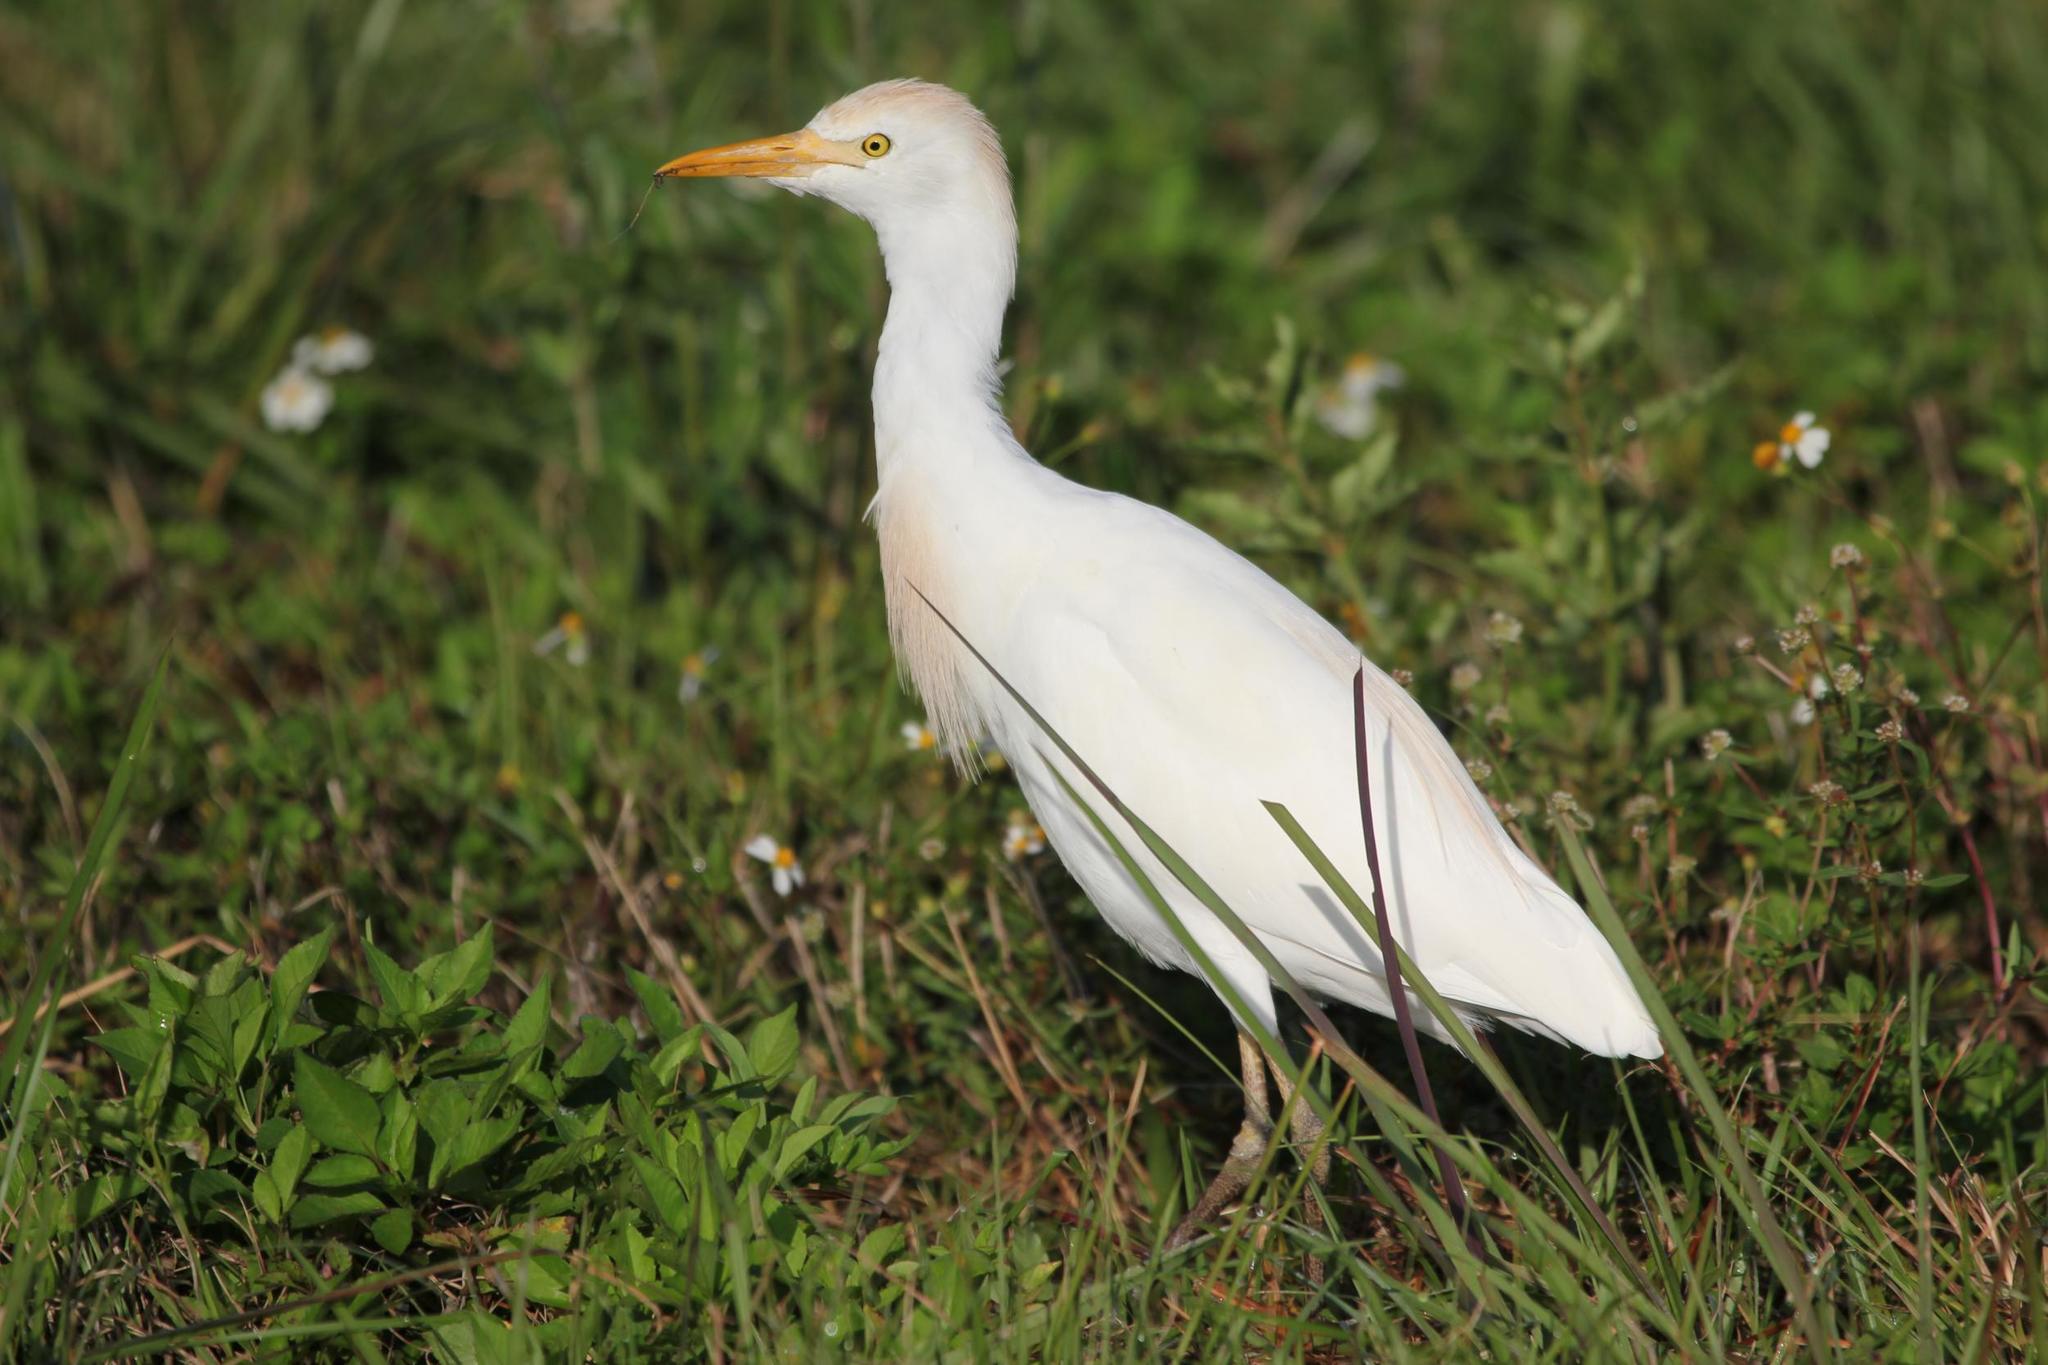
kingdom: Animalia
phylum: Chordata
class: Aves
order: Pelecaniformes
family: Ardeidae
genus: Bubulcus
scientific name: Bubulcus ibis
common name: Cattle egret
